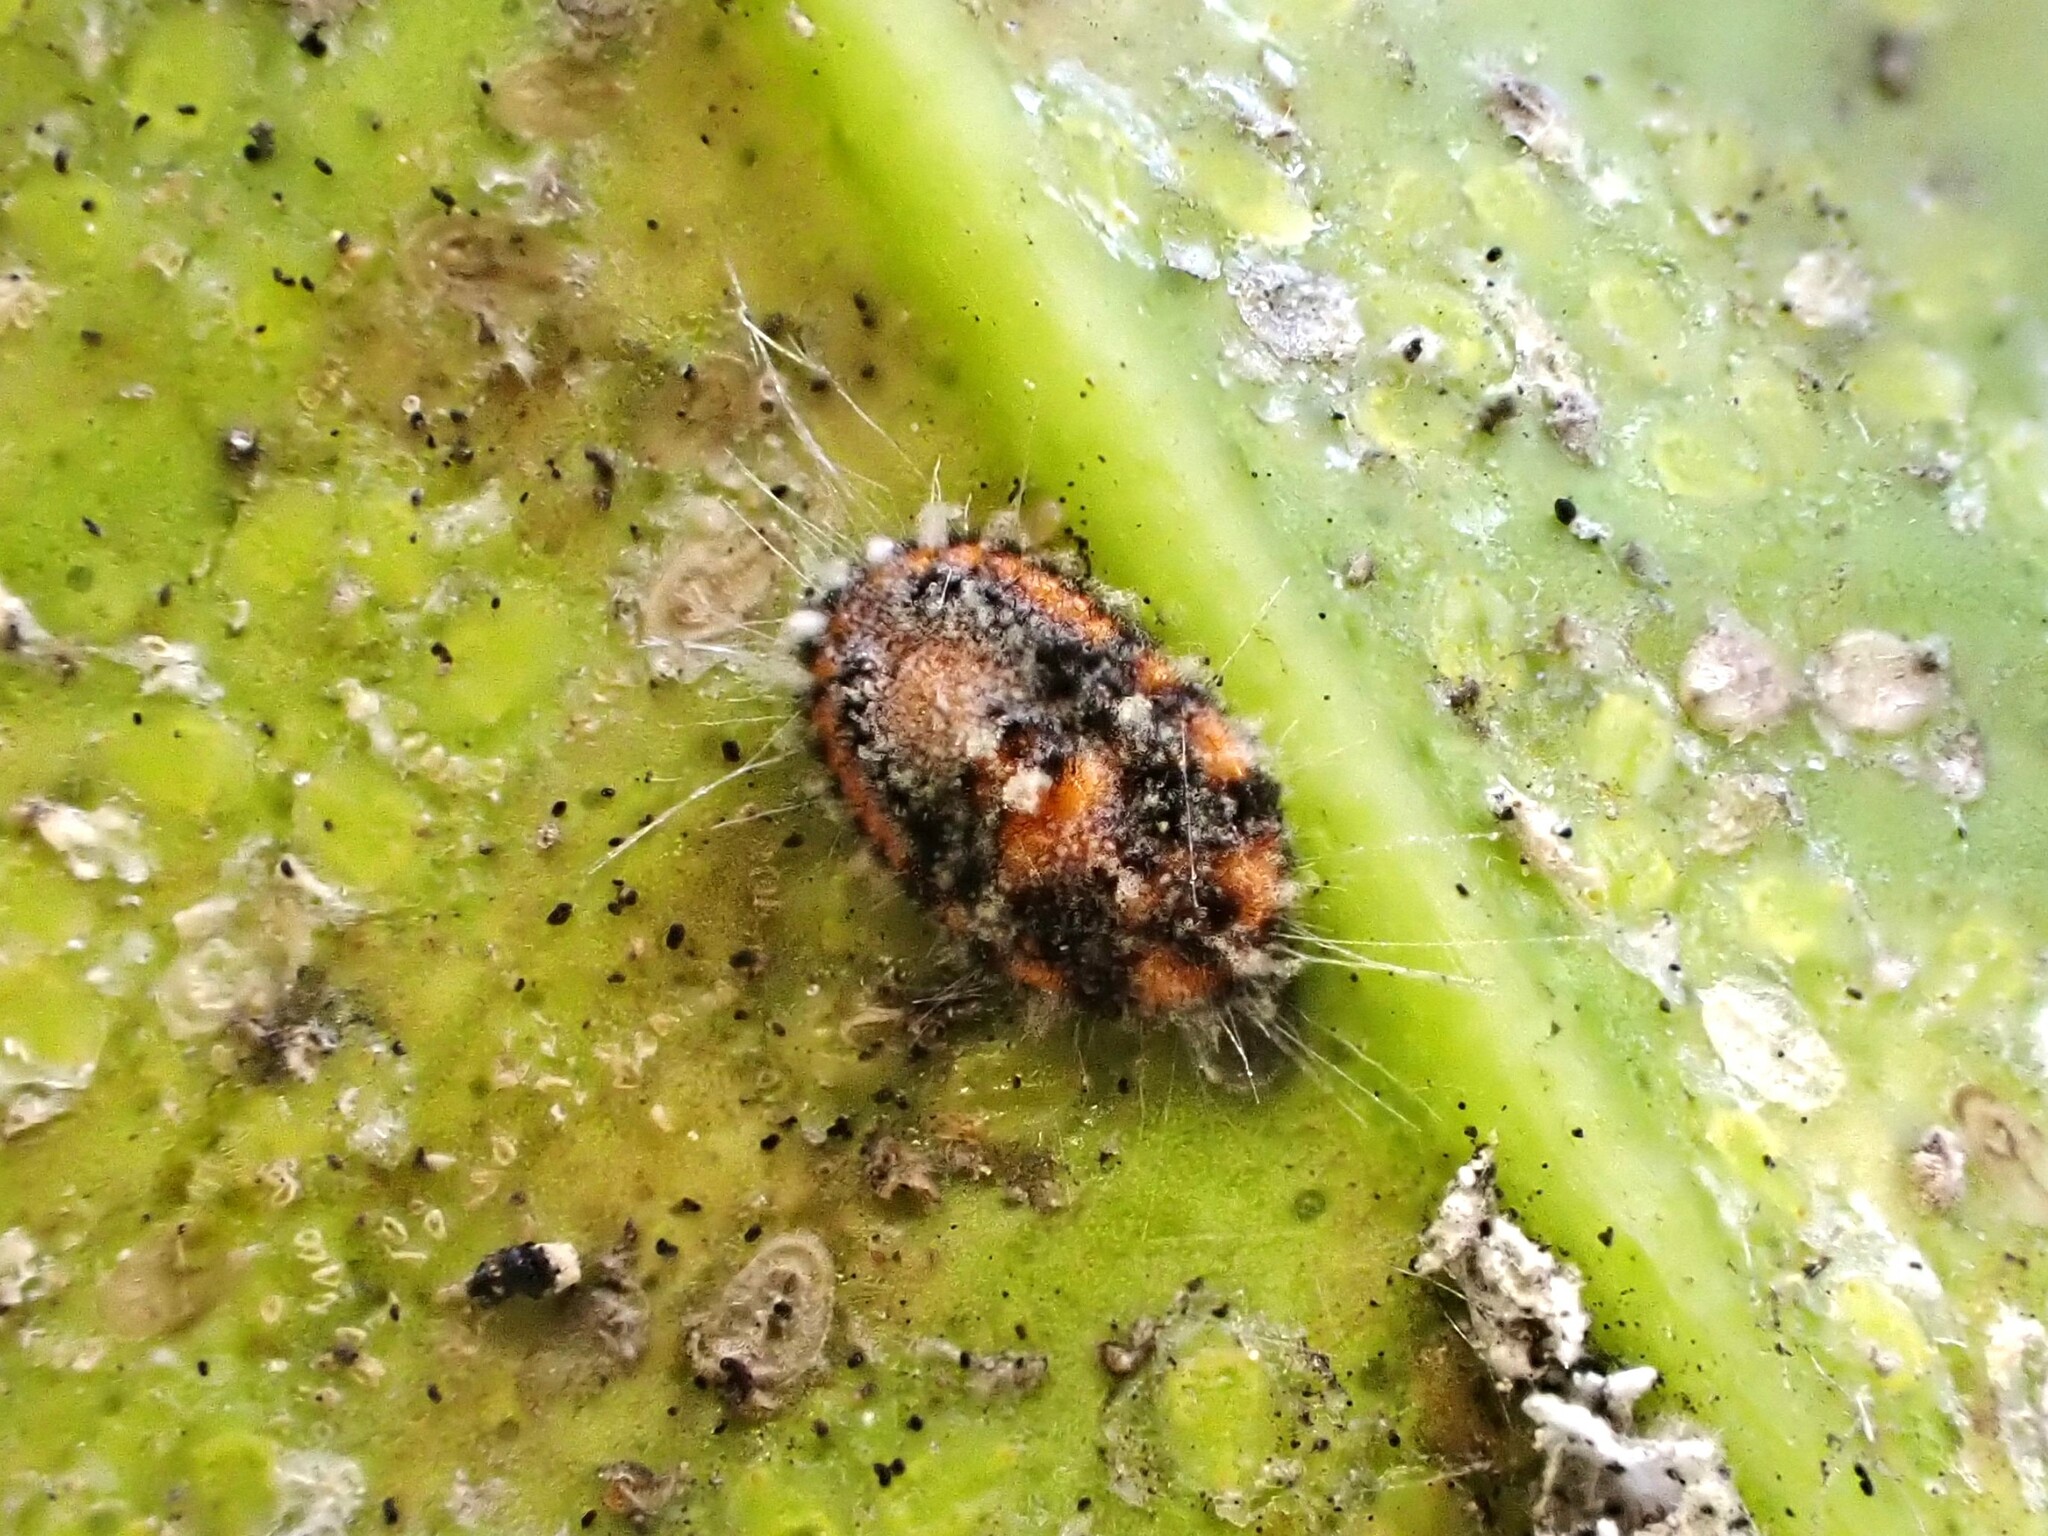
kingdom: Animalia
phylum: Arthropoda
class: Insecta
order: Hemiptera
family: Margarodidae
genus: Icerya
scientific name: Icerya purchasi
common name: Cottony cushion scale
